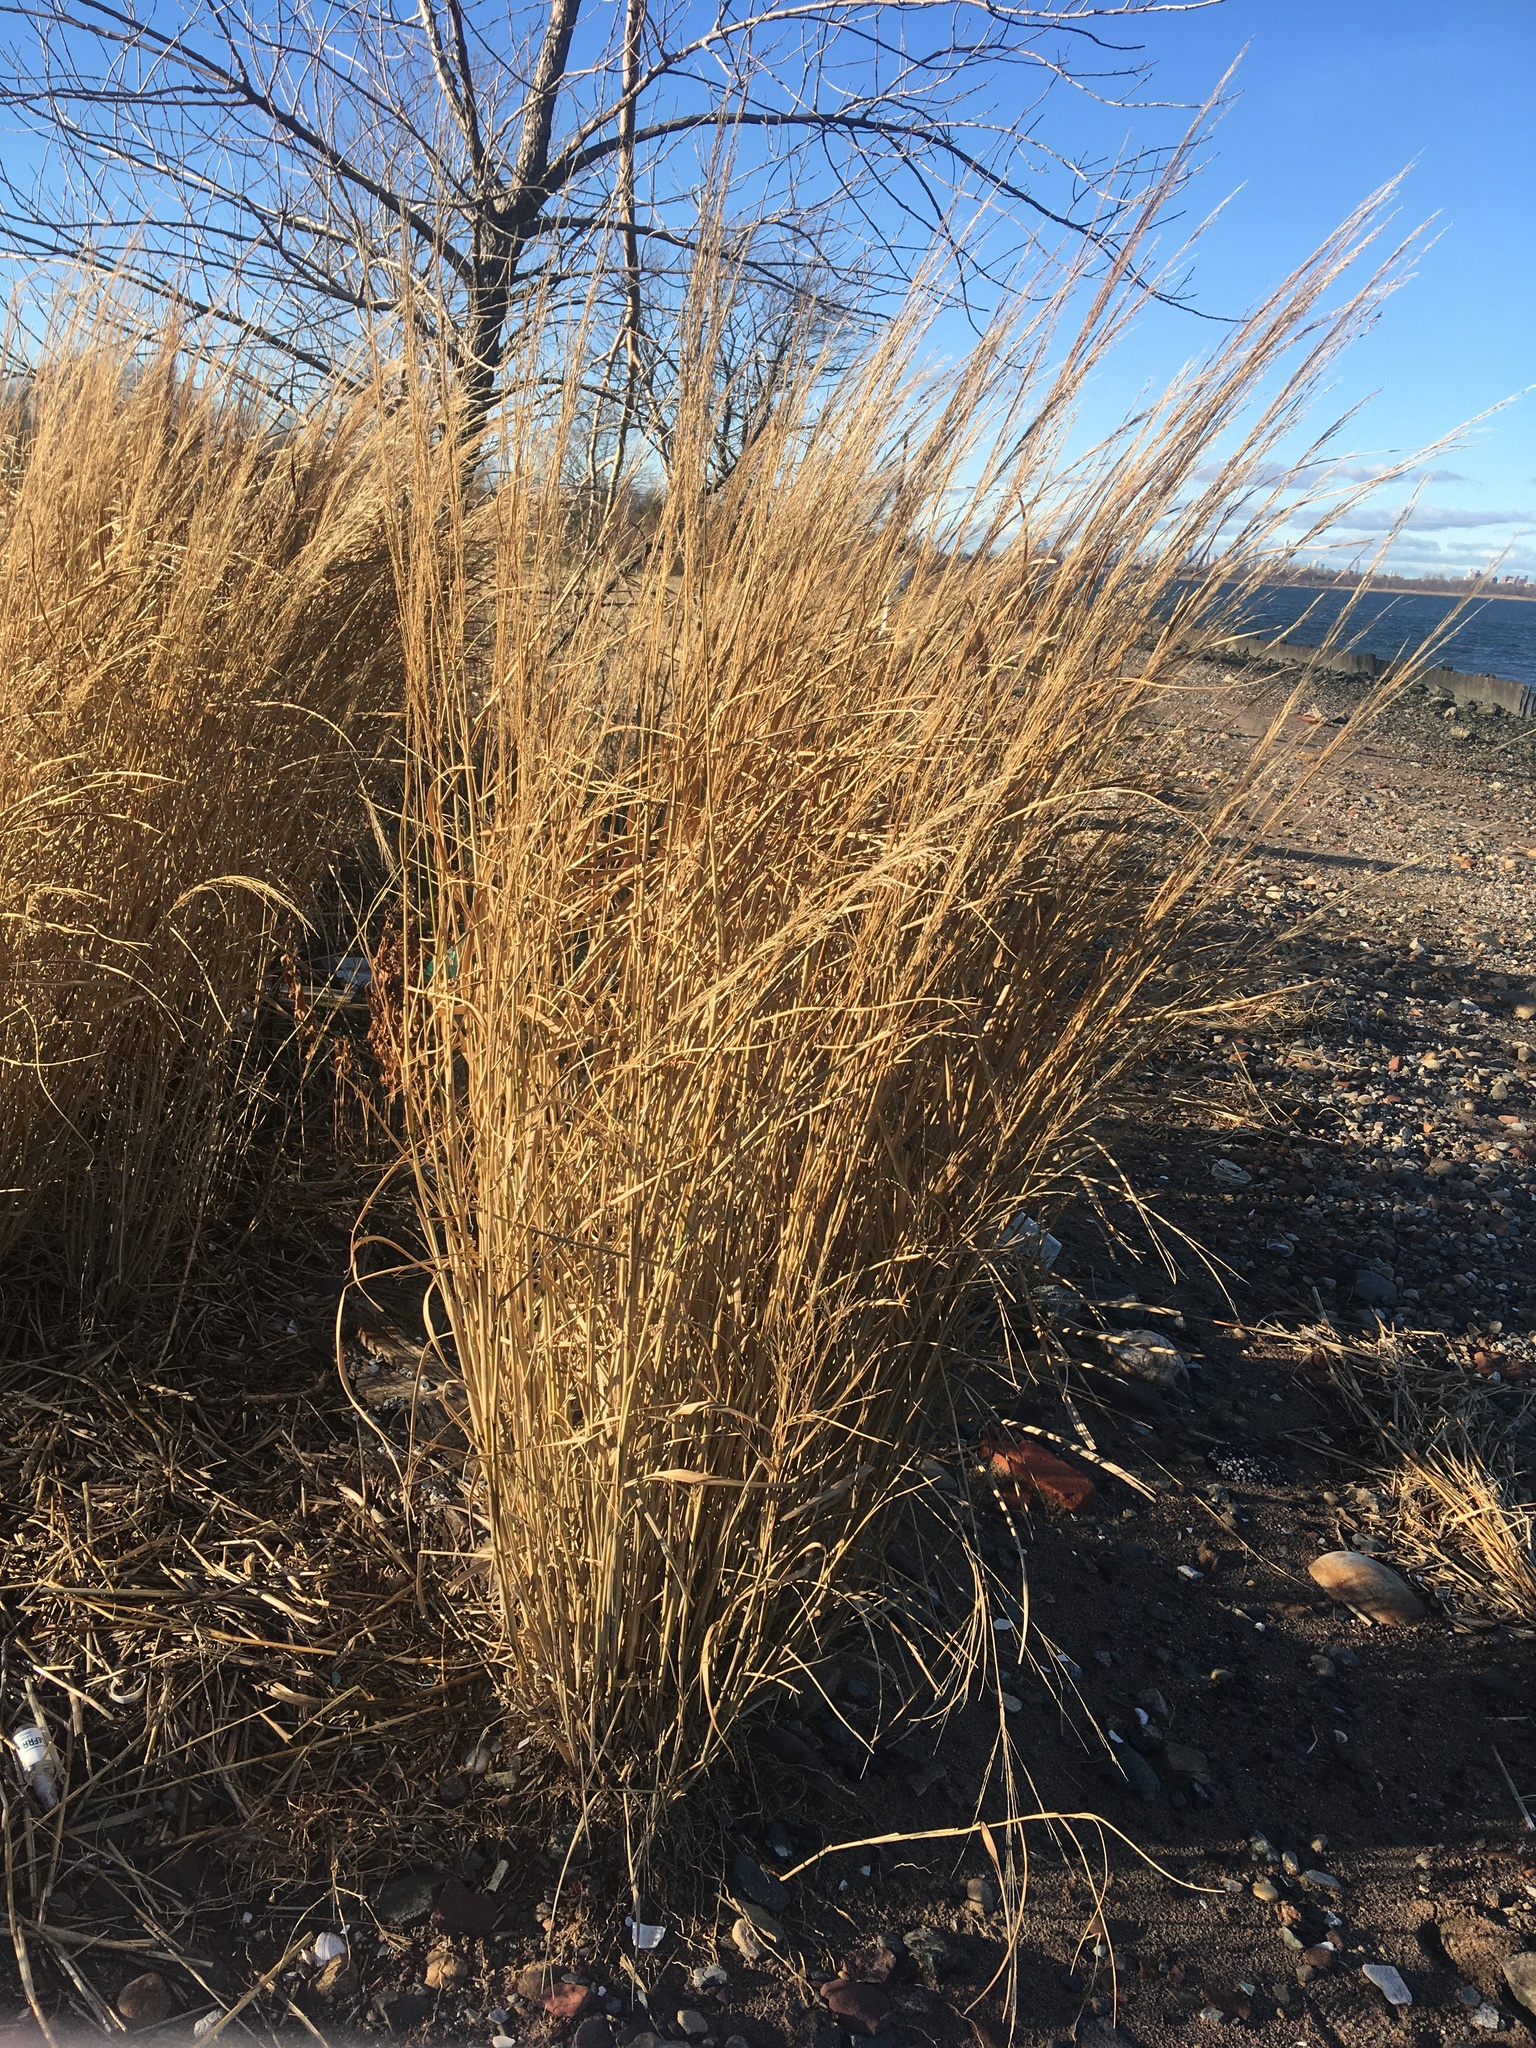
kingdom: Plantae
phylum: Tracheophyta
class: Liliopsida
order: Poales
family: Poaceae
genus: Panicum
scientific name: Panicum amarum
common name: Bitter panicum
